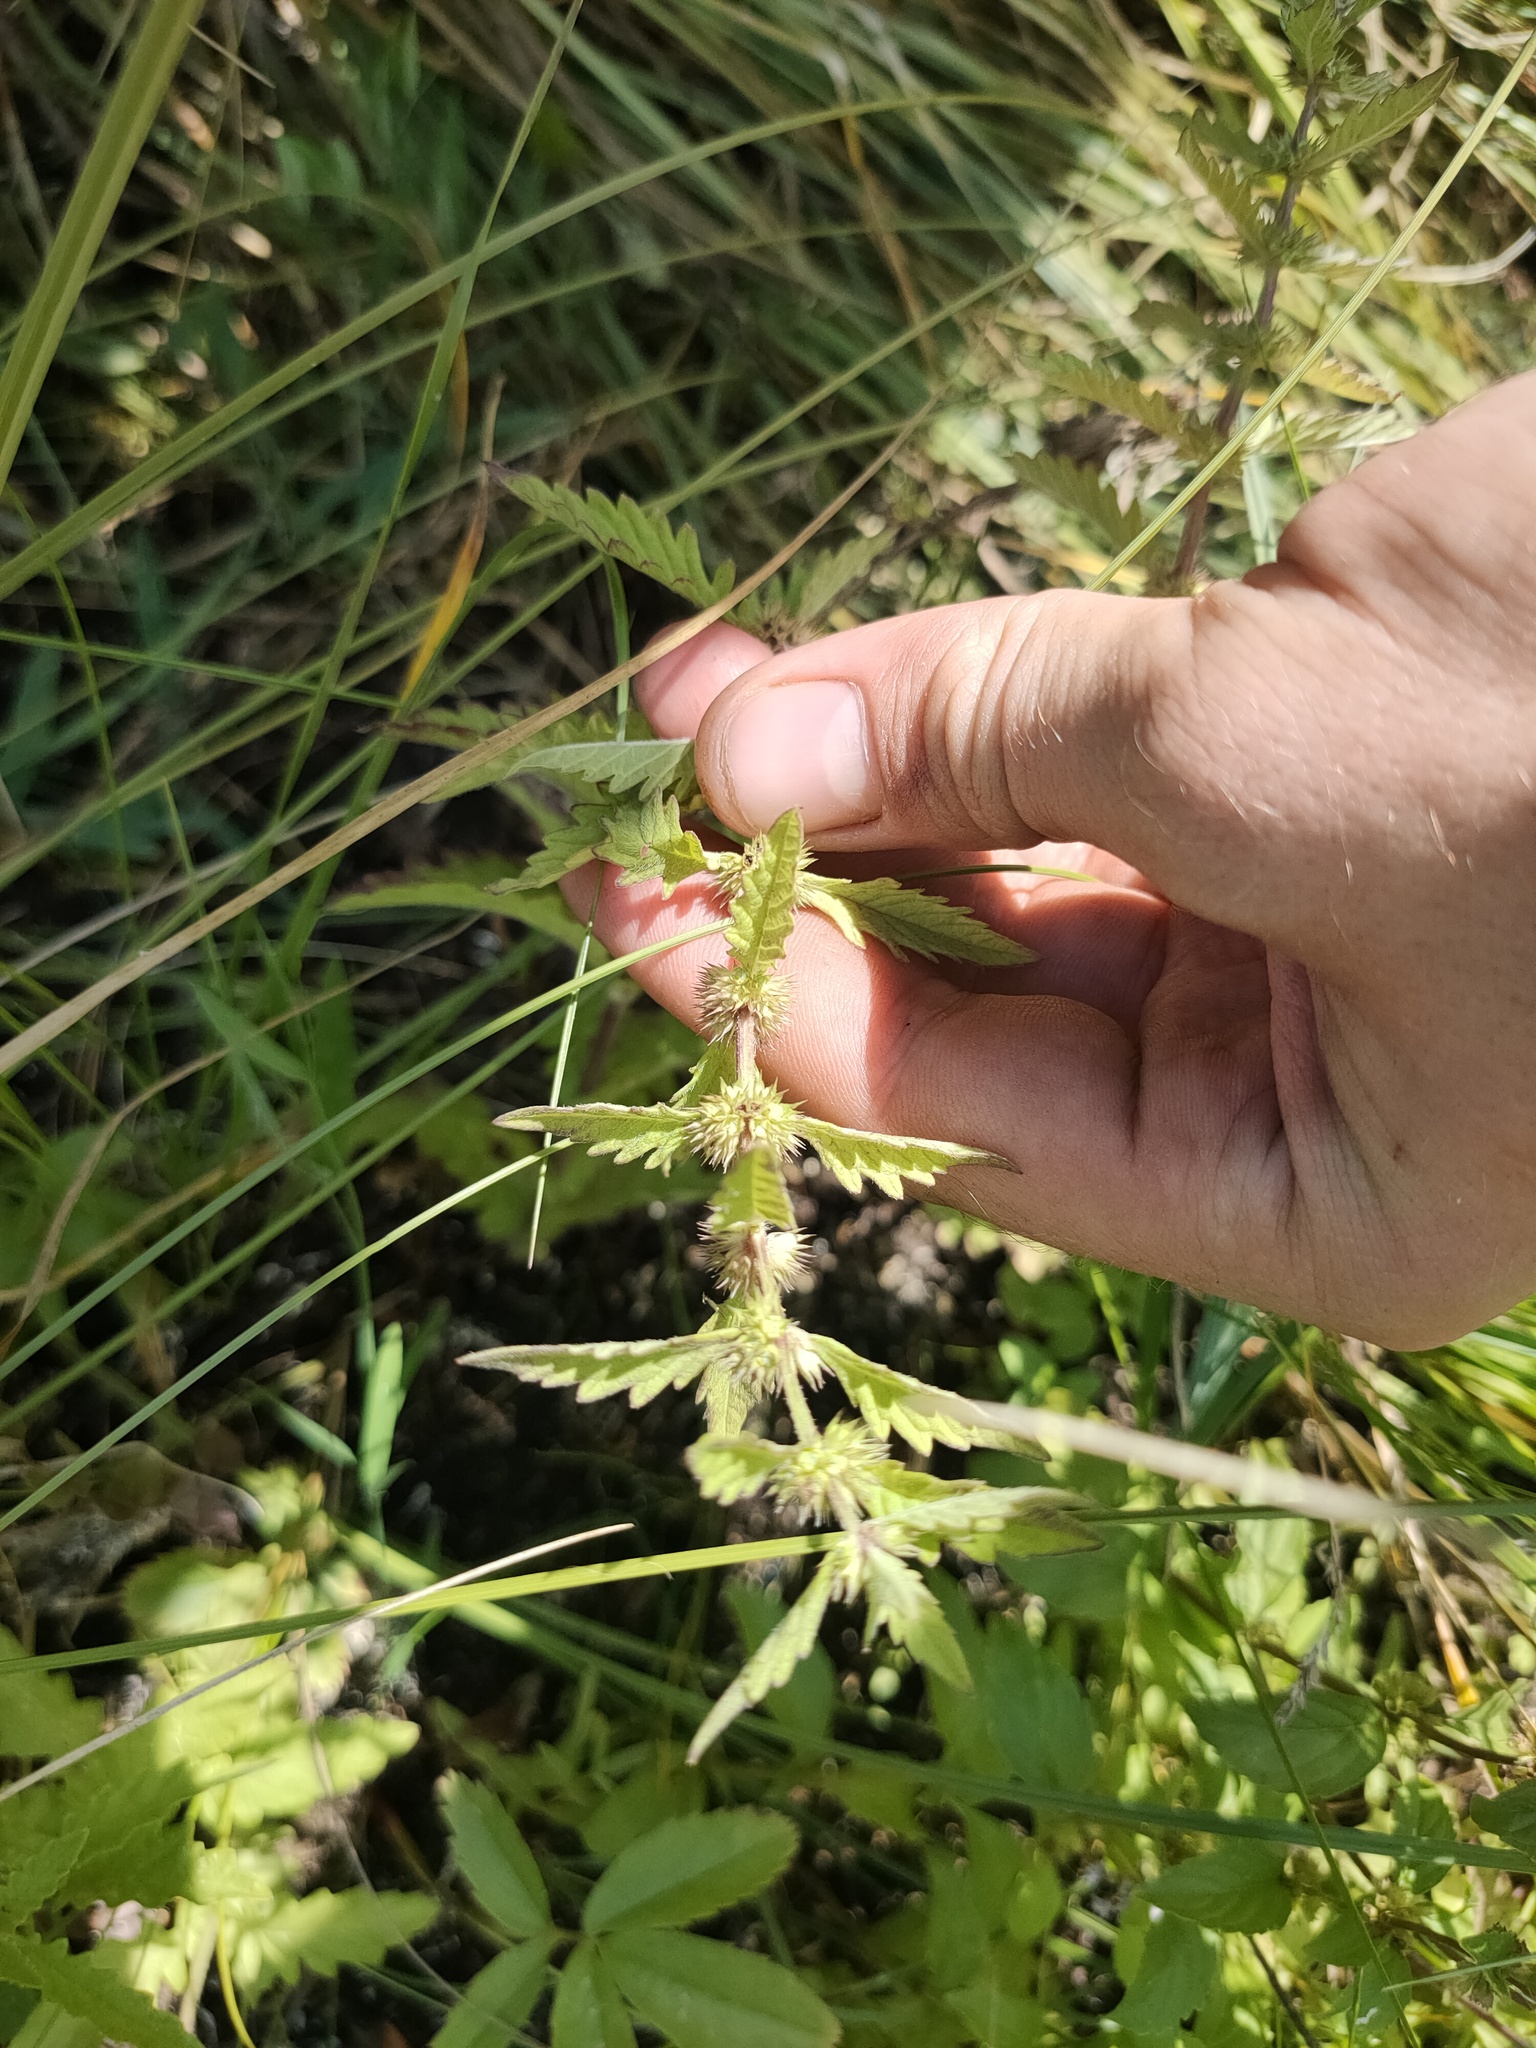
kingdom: Plantae
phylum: Tracheophyta
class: Magnoliopsida
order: Lamiales
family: Lamiaceae
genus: Lycopus
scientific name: Lycopus europaeus
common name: European bugleweed
